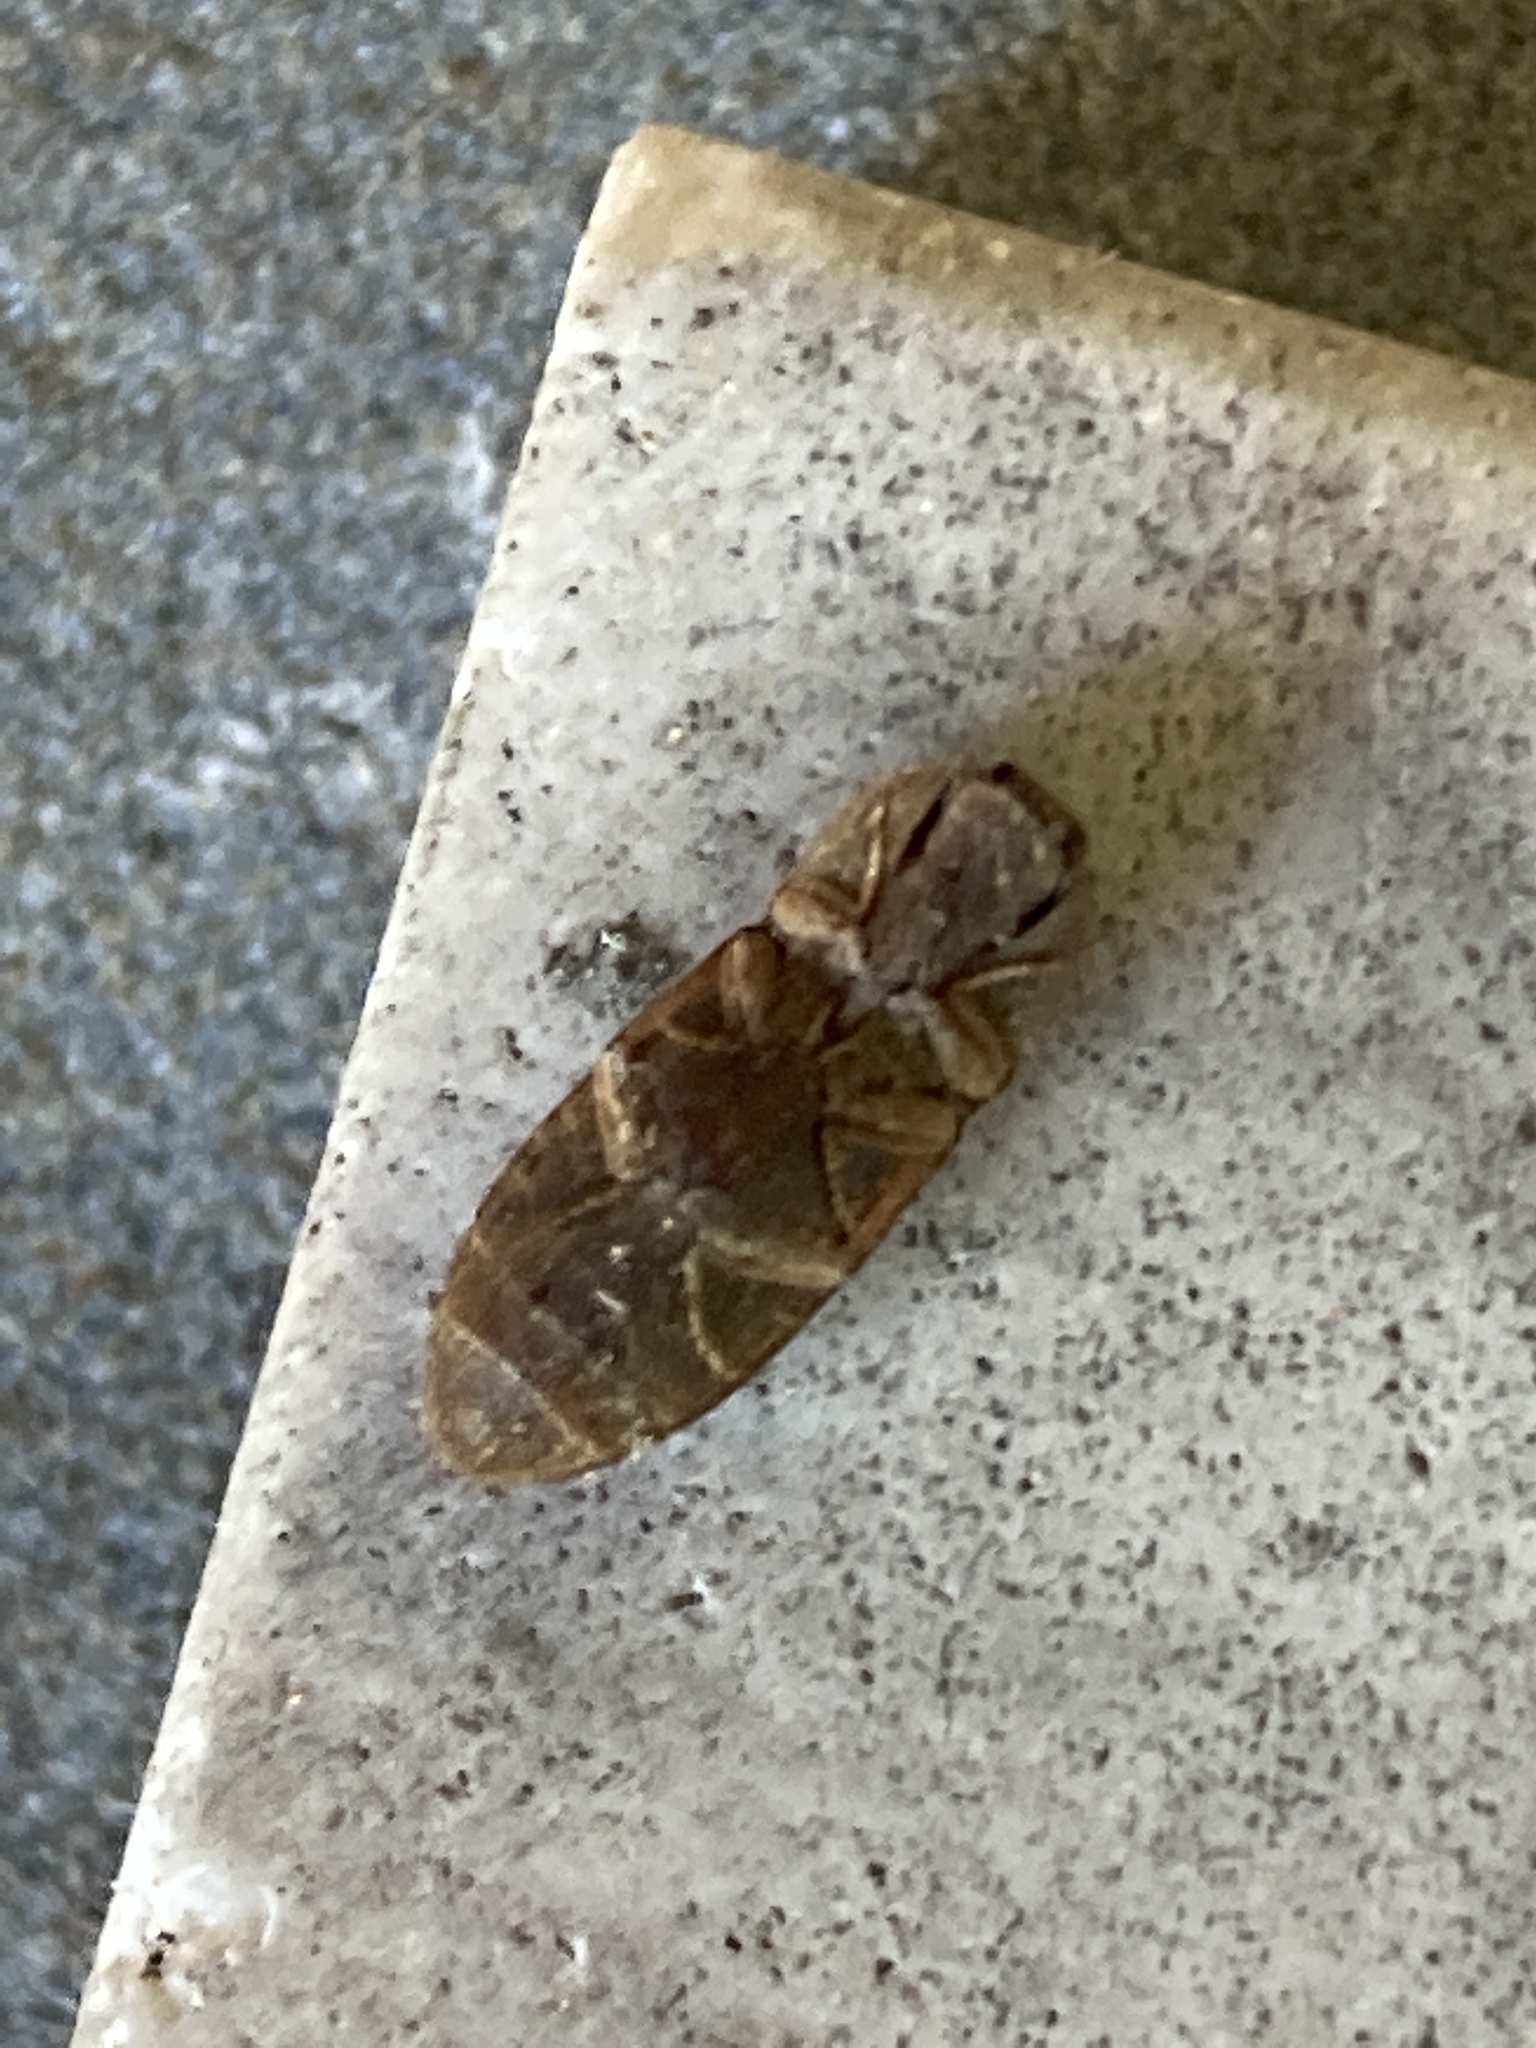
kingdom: Animalia
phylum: Arthropoda
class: Insecta
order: Coleoptera
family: Elateridae
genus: Agrypnus
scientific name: Agrypnus rectangularis
